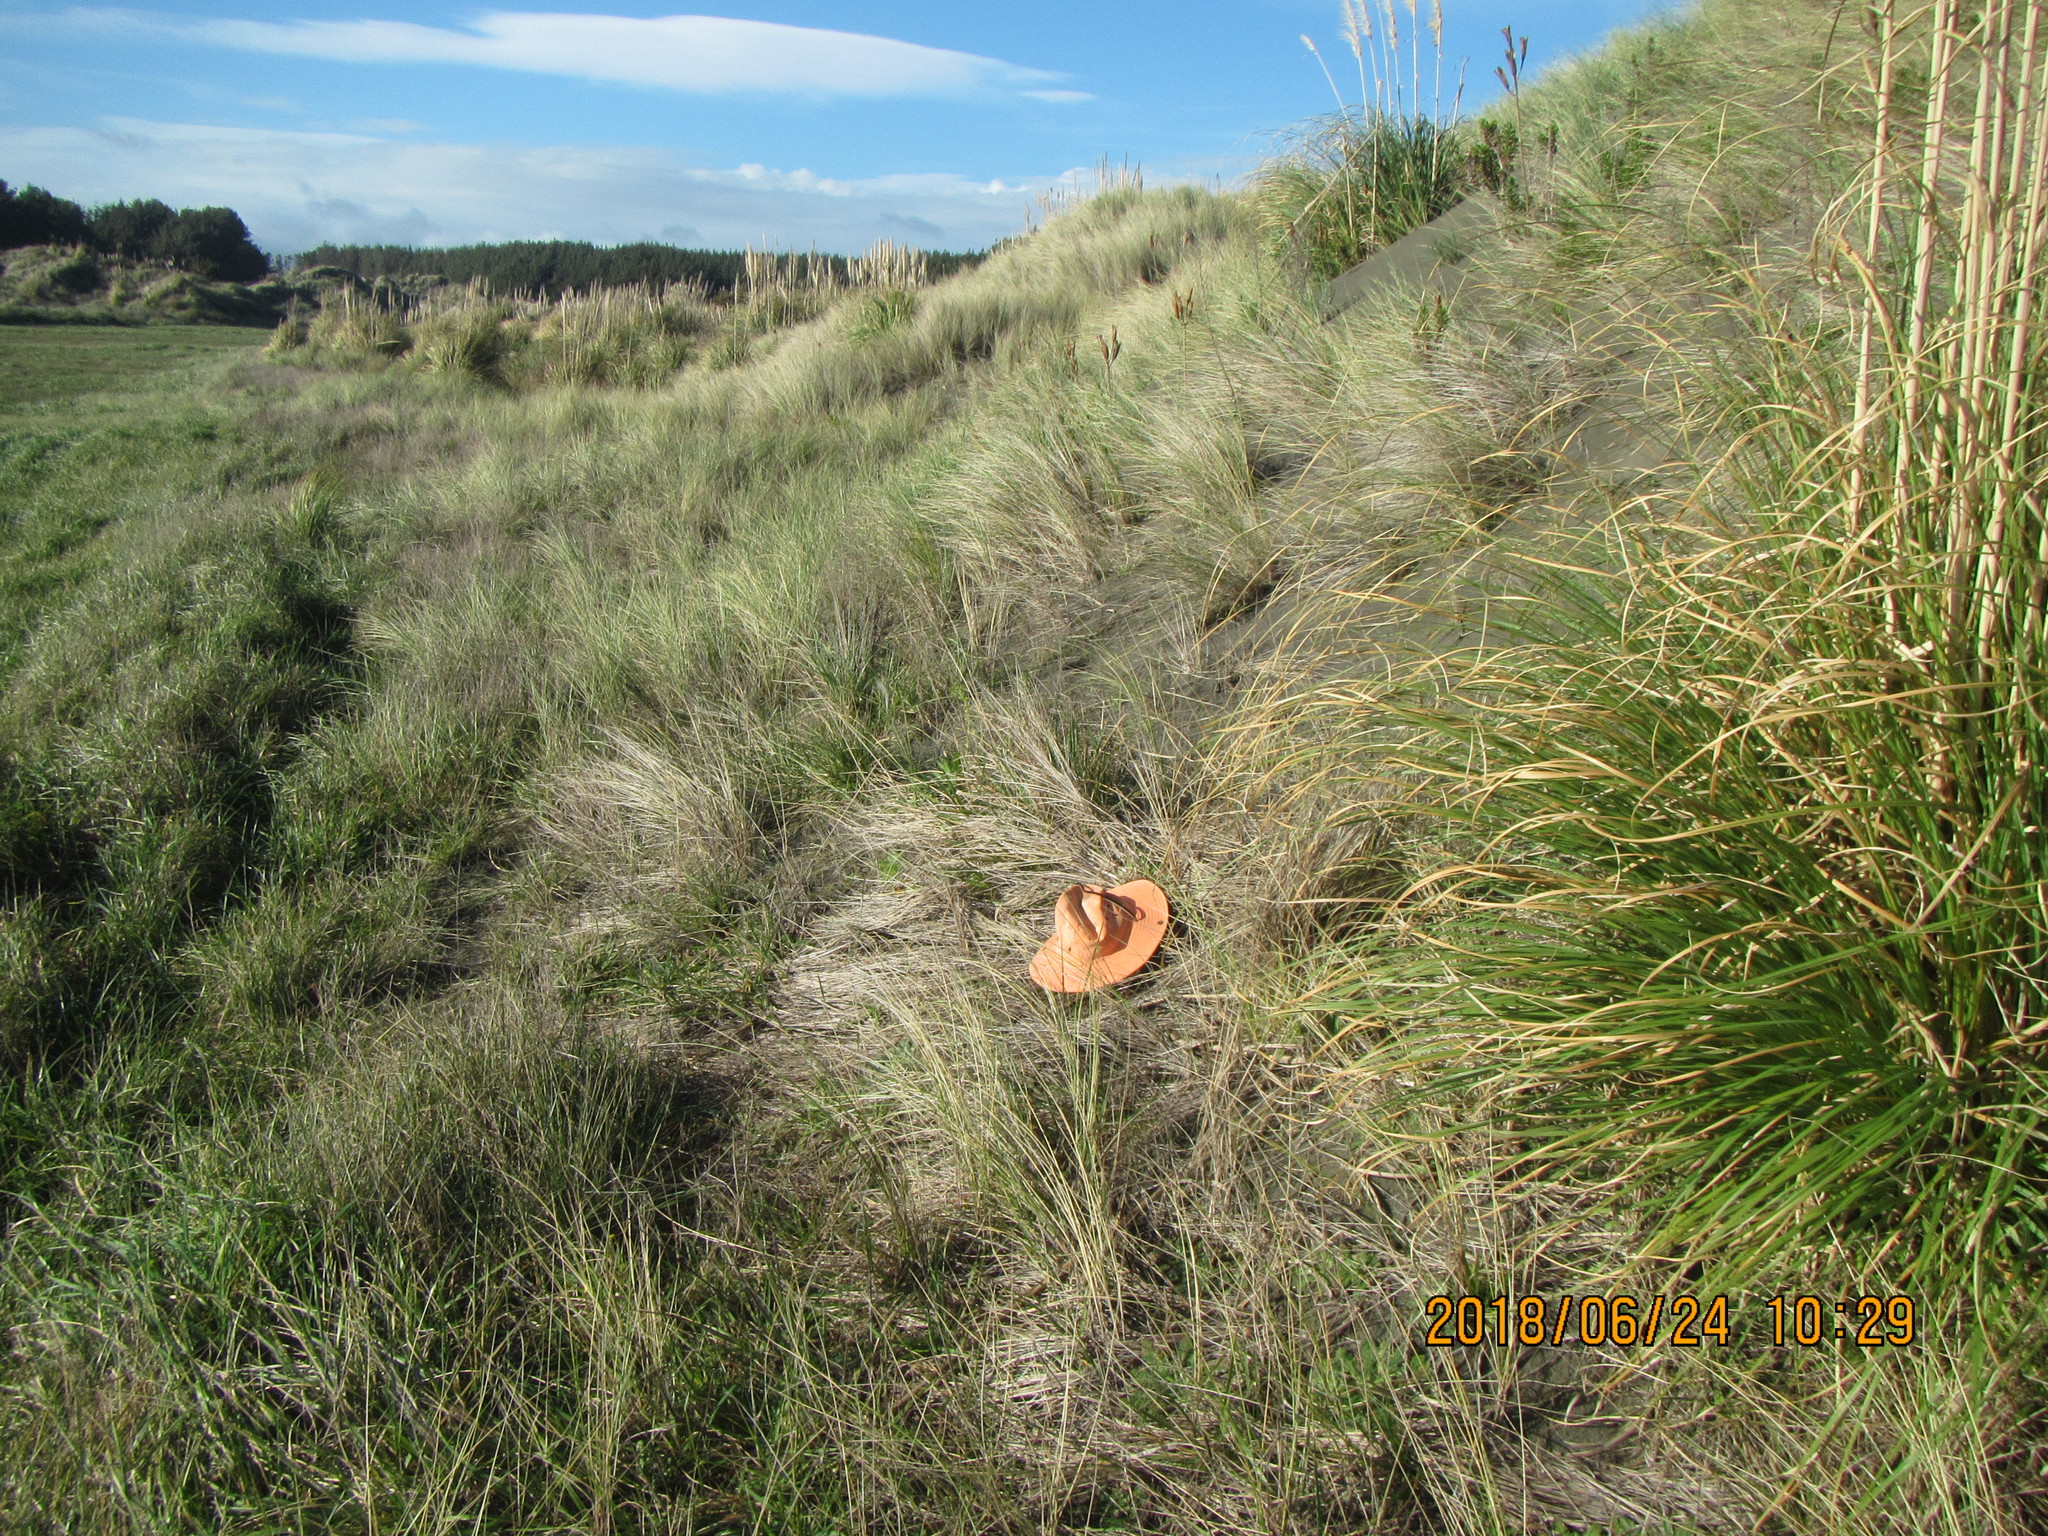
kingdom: Animalia
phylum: Mollusca
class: Gastropoda
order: Stylommatophora
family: Agriolimacidae
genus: Deroceras
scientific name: Deroceras reticulatum
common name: Gray field slug
